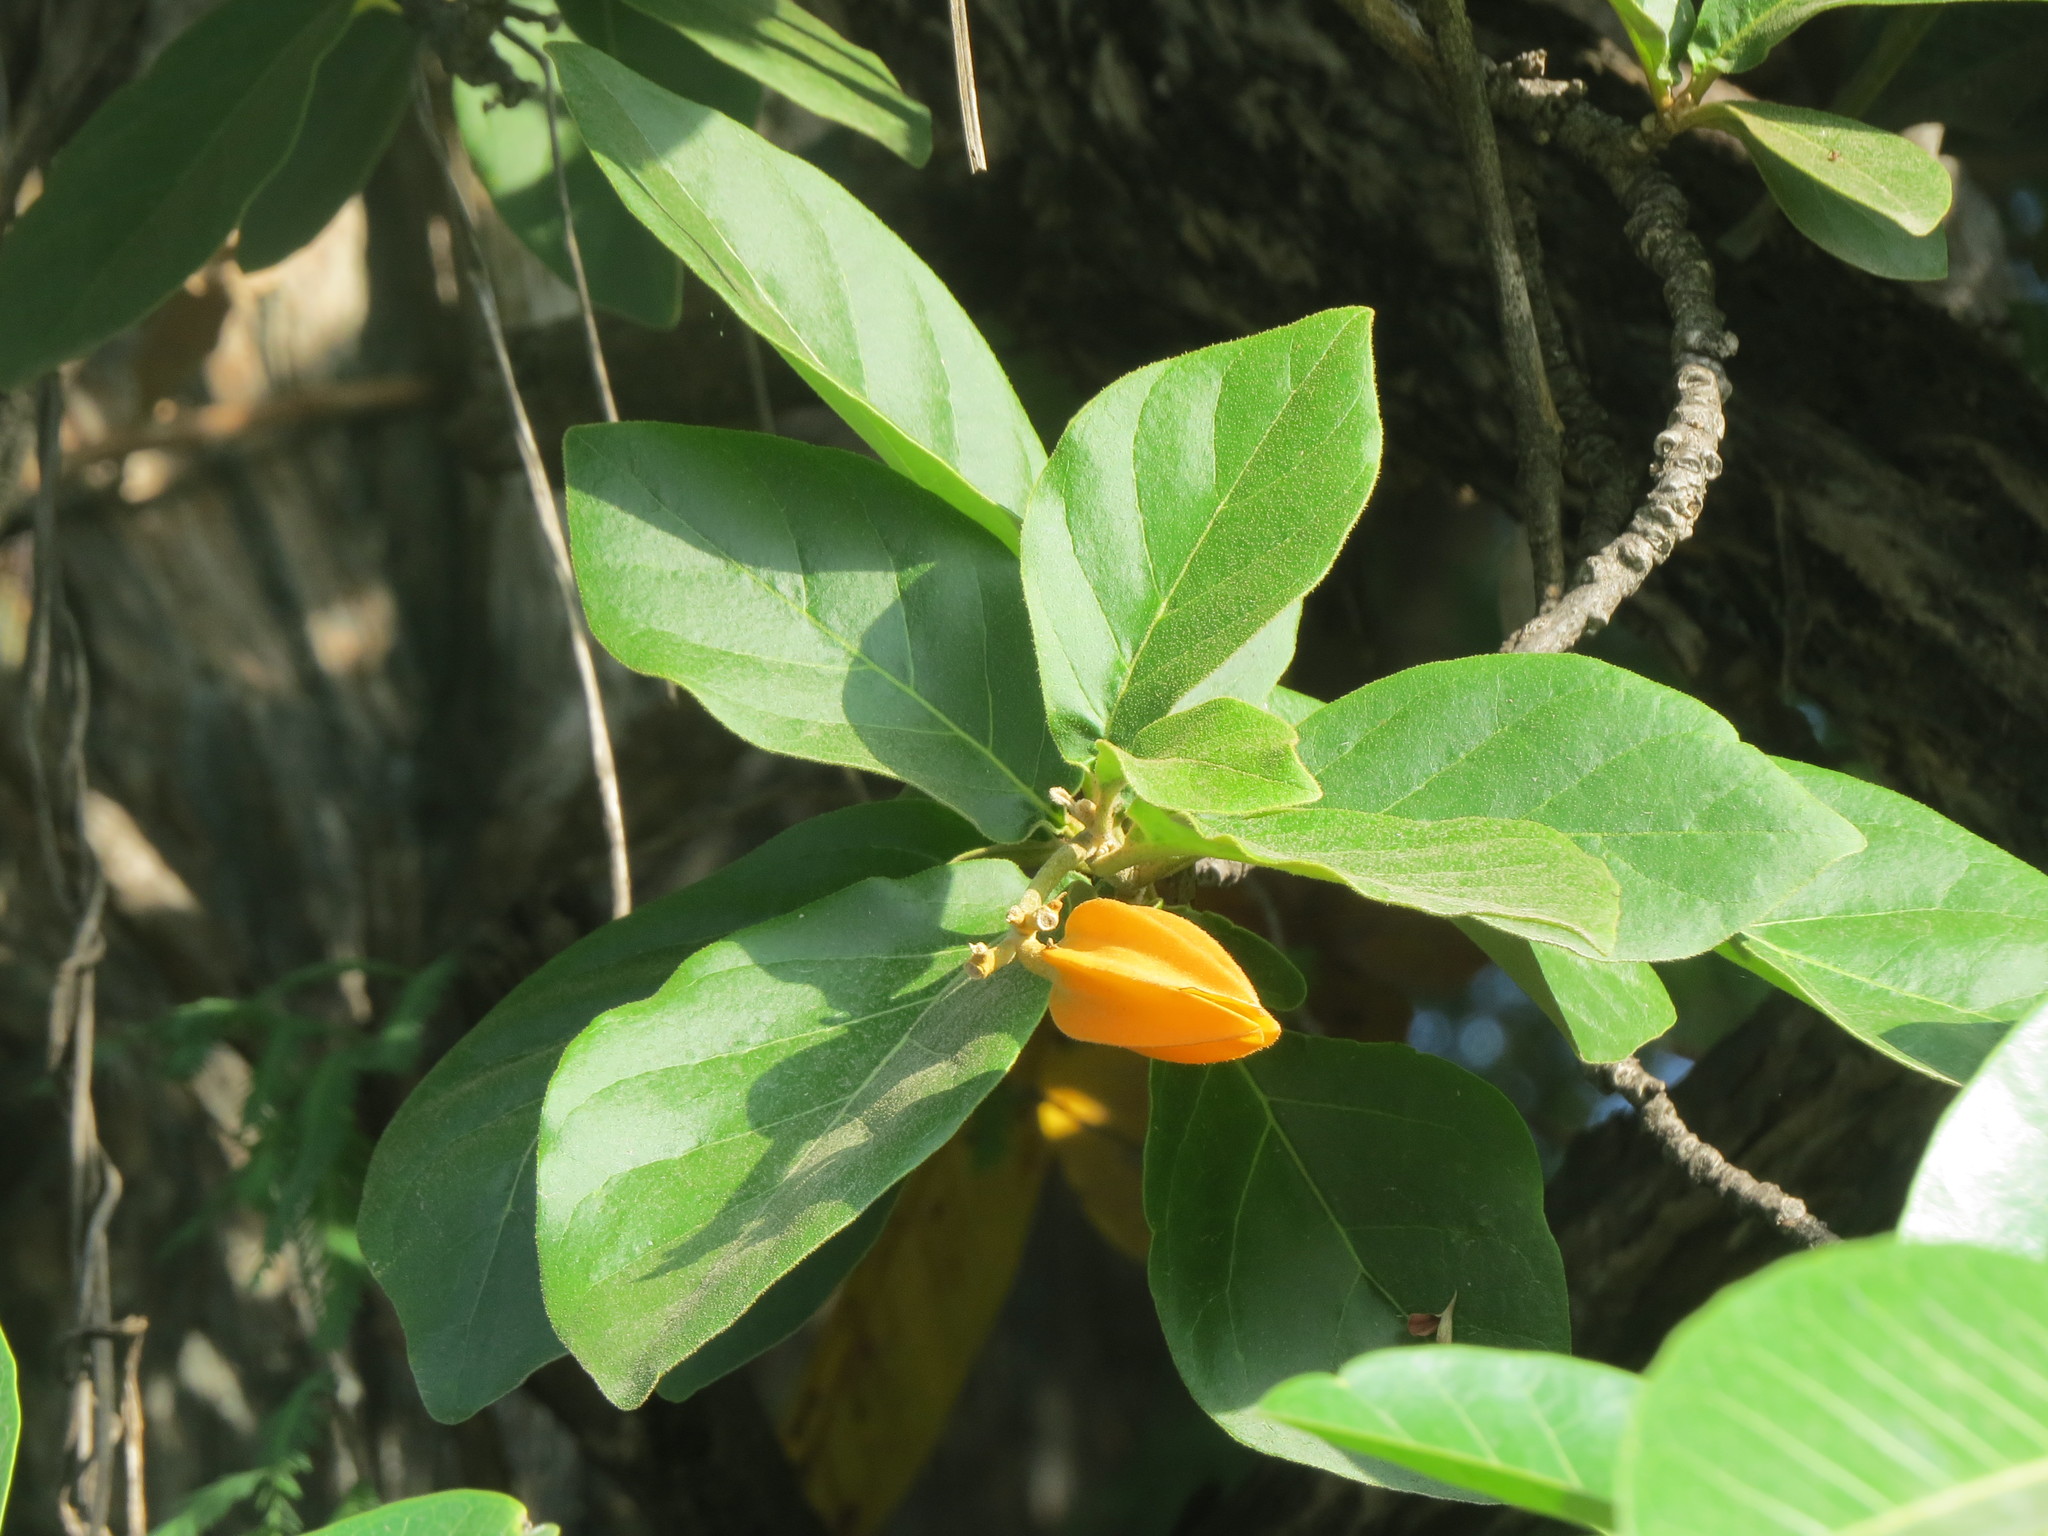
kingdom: Plantae
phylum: Tracheophyta
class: Magnoliopsida
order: Solanales
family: Solanaceae
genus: Juanulloa
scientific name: Juanulloa mexicana
